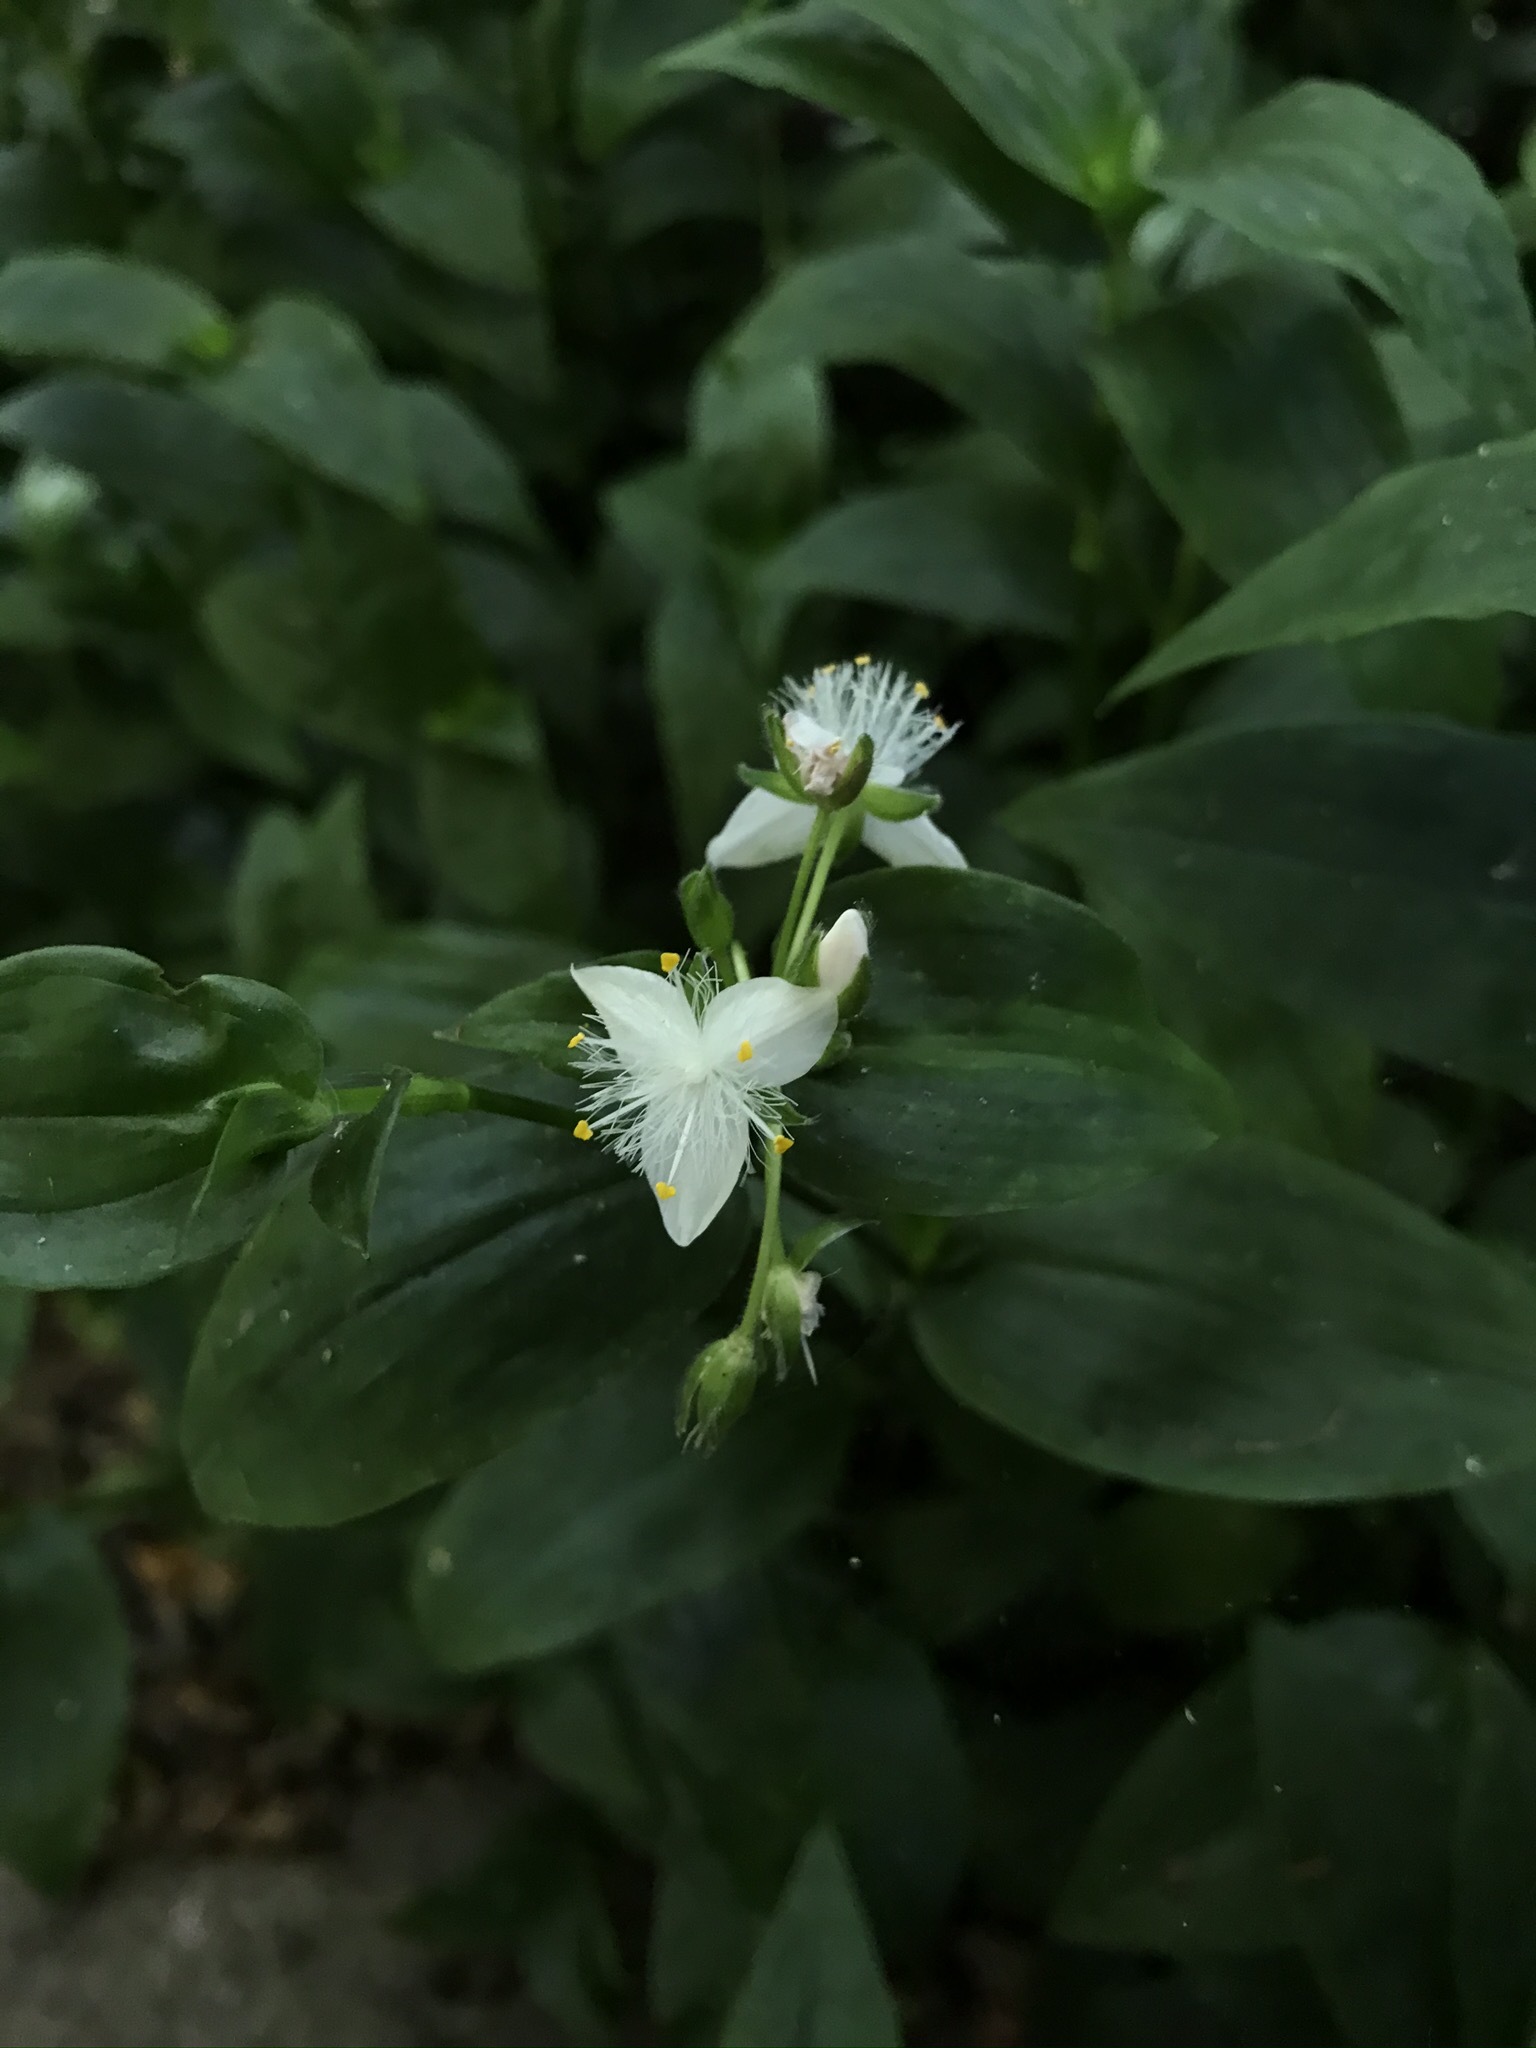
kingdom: Plantae
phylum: Tracheophyta
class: Liliopsida
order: Commelinales
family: Commelinaceae
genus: Tradescantia
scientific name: Tradescantia fluminensis
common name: Wandering-jew
